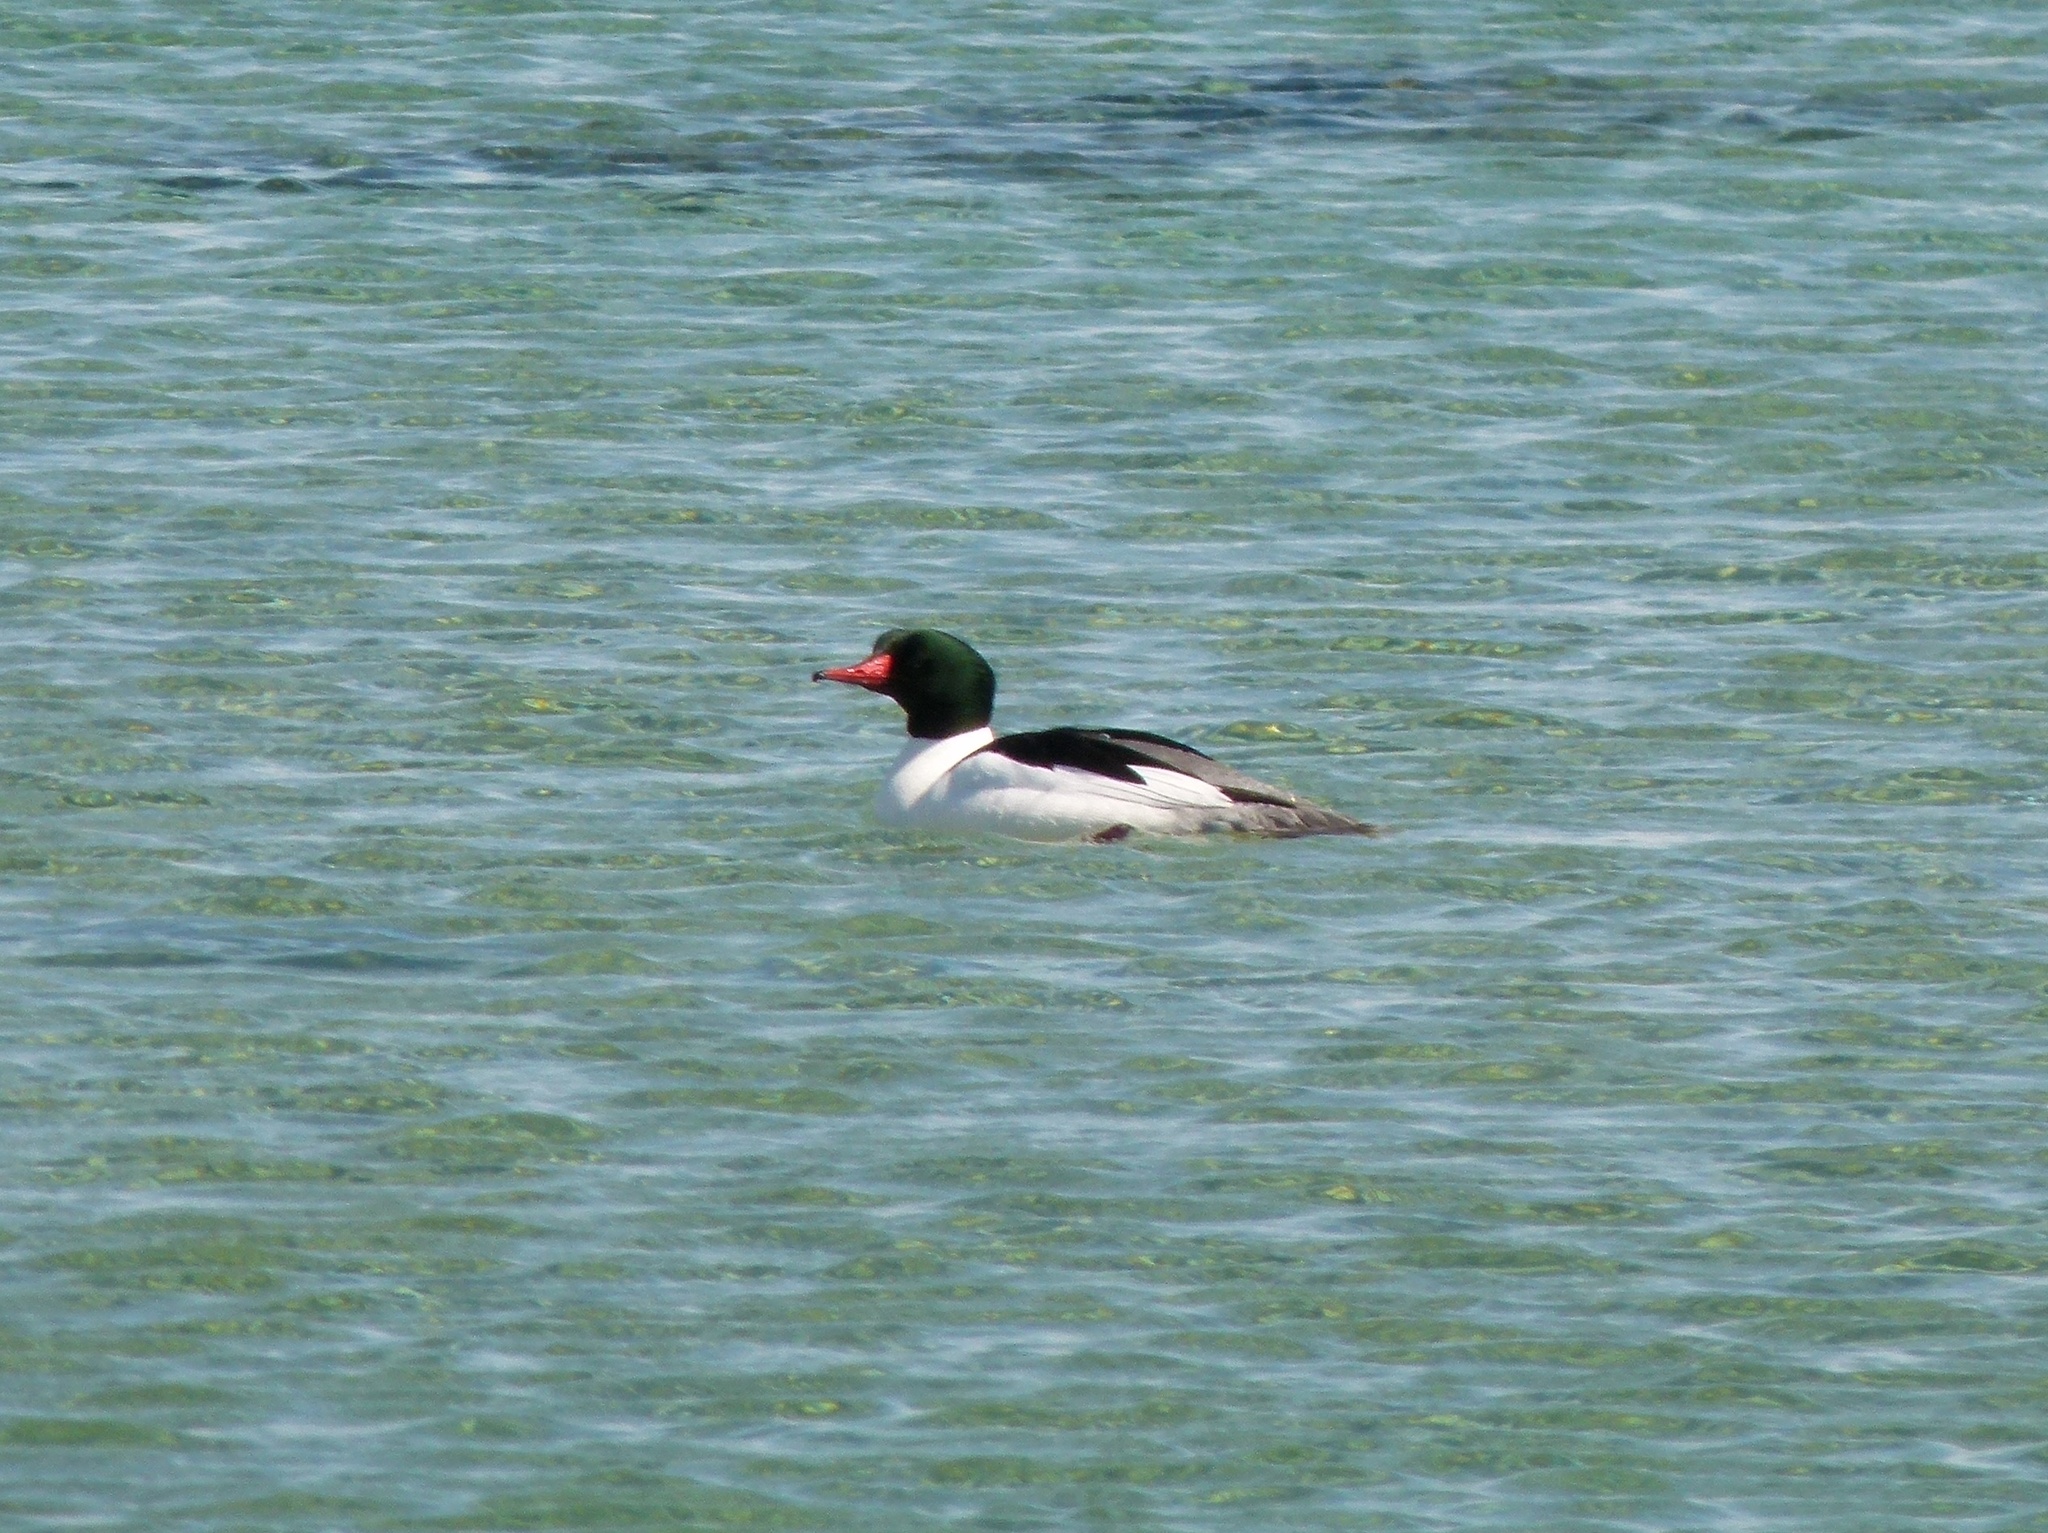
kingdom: Animalia
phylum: Chordata
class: Aves
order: Anseriformes
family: Anatidae
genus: Mergus
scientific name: Mergus merganser
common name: Common merganser
